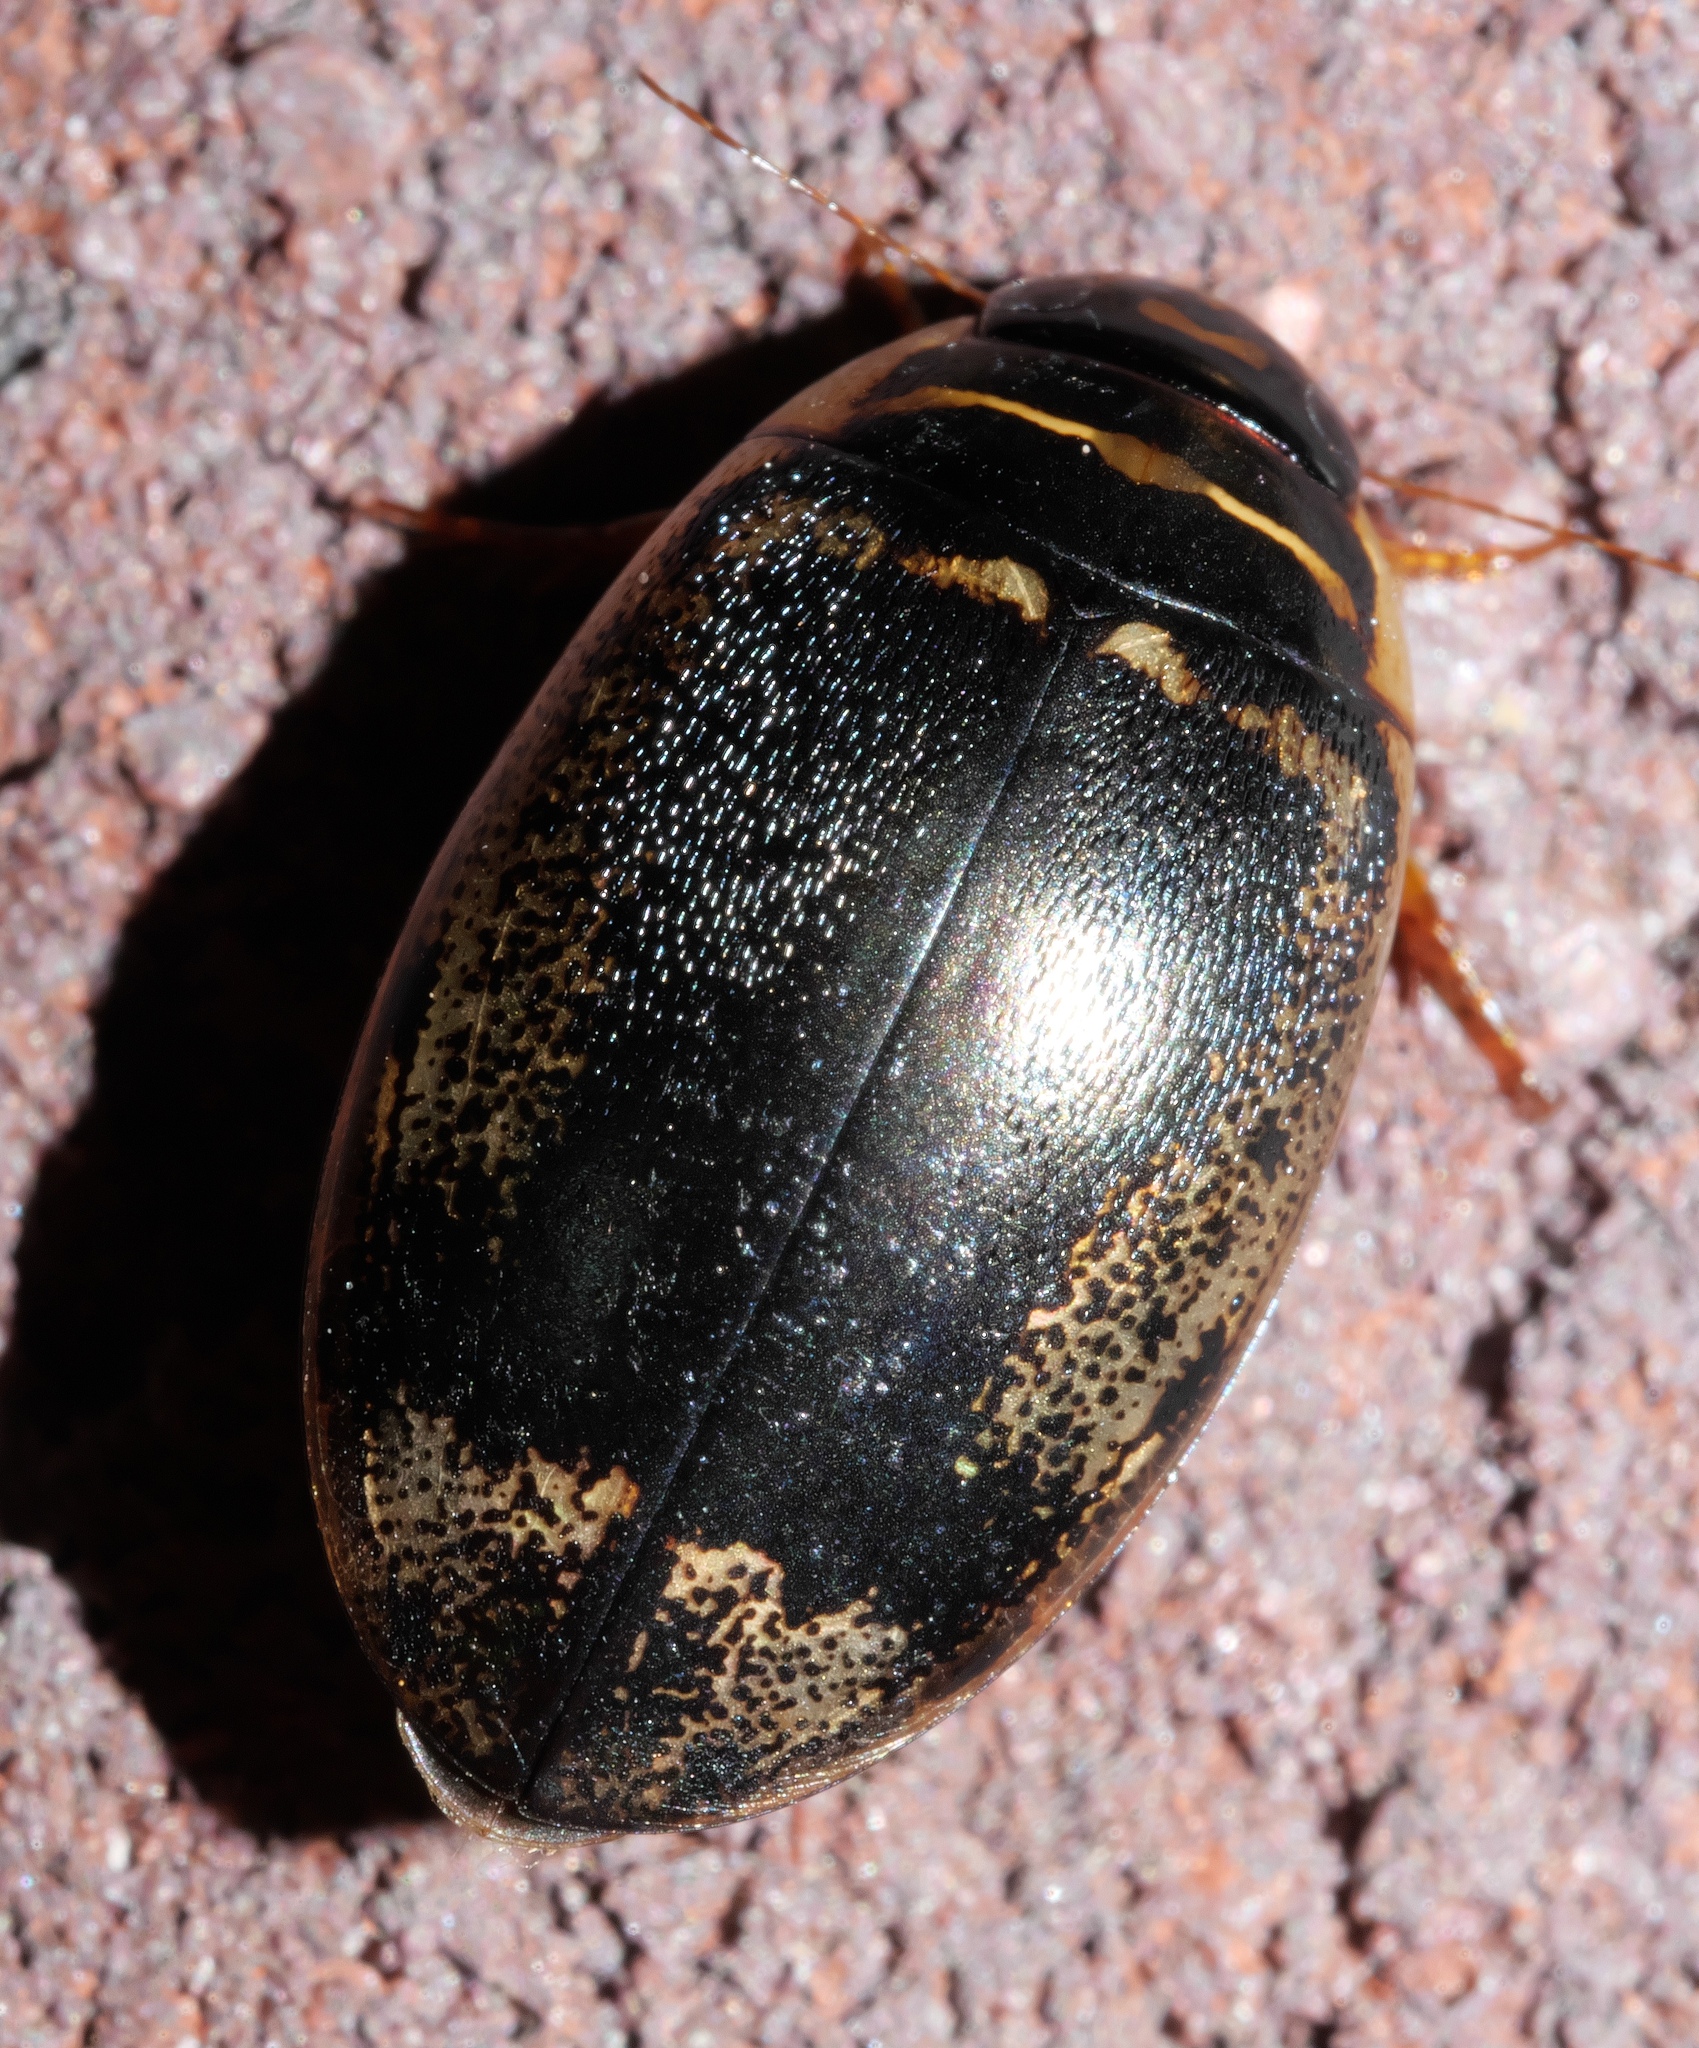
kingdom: Animalia
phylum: Arthropoda
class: Insecta
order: Coleoptera
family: Dytiscidae
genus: Thermonectus
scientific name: Thermonectus basillaris
